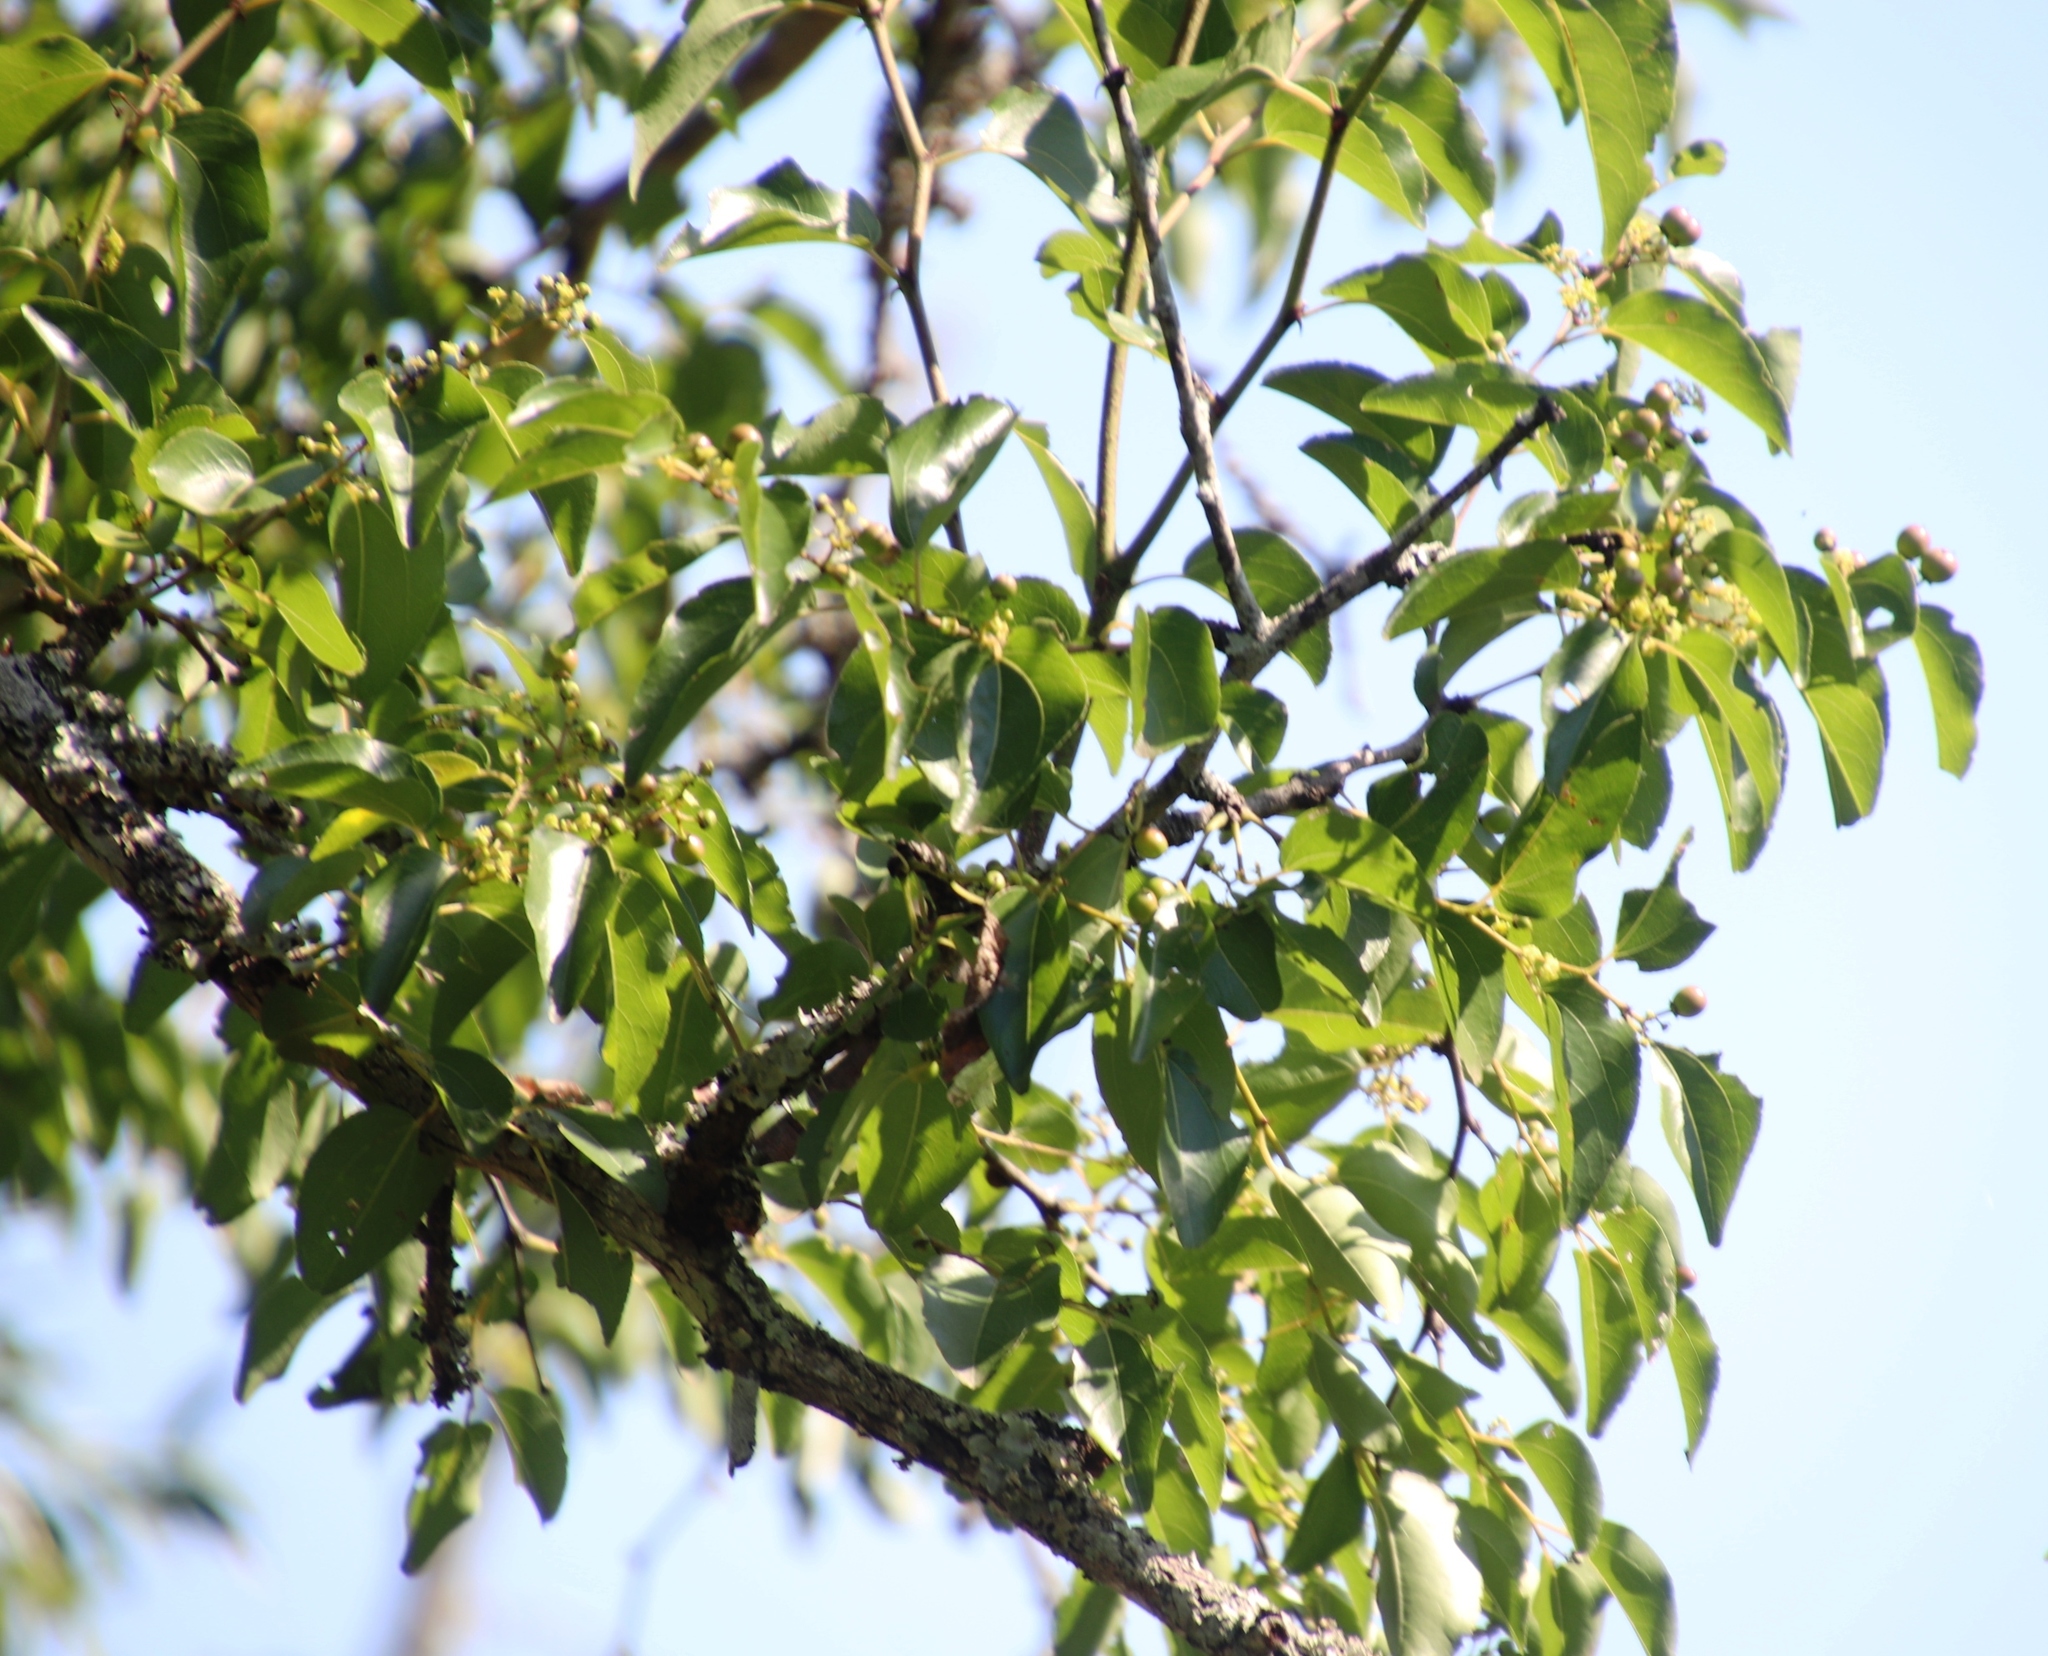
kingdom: Plantae
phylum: Tracheophyta
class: Magnoliopsida
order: Rosales
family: Rhamnaceae
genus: Ziziphus
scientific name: Ziziphus mucronata
